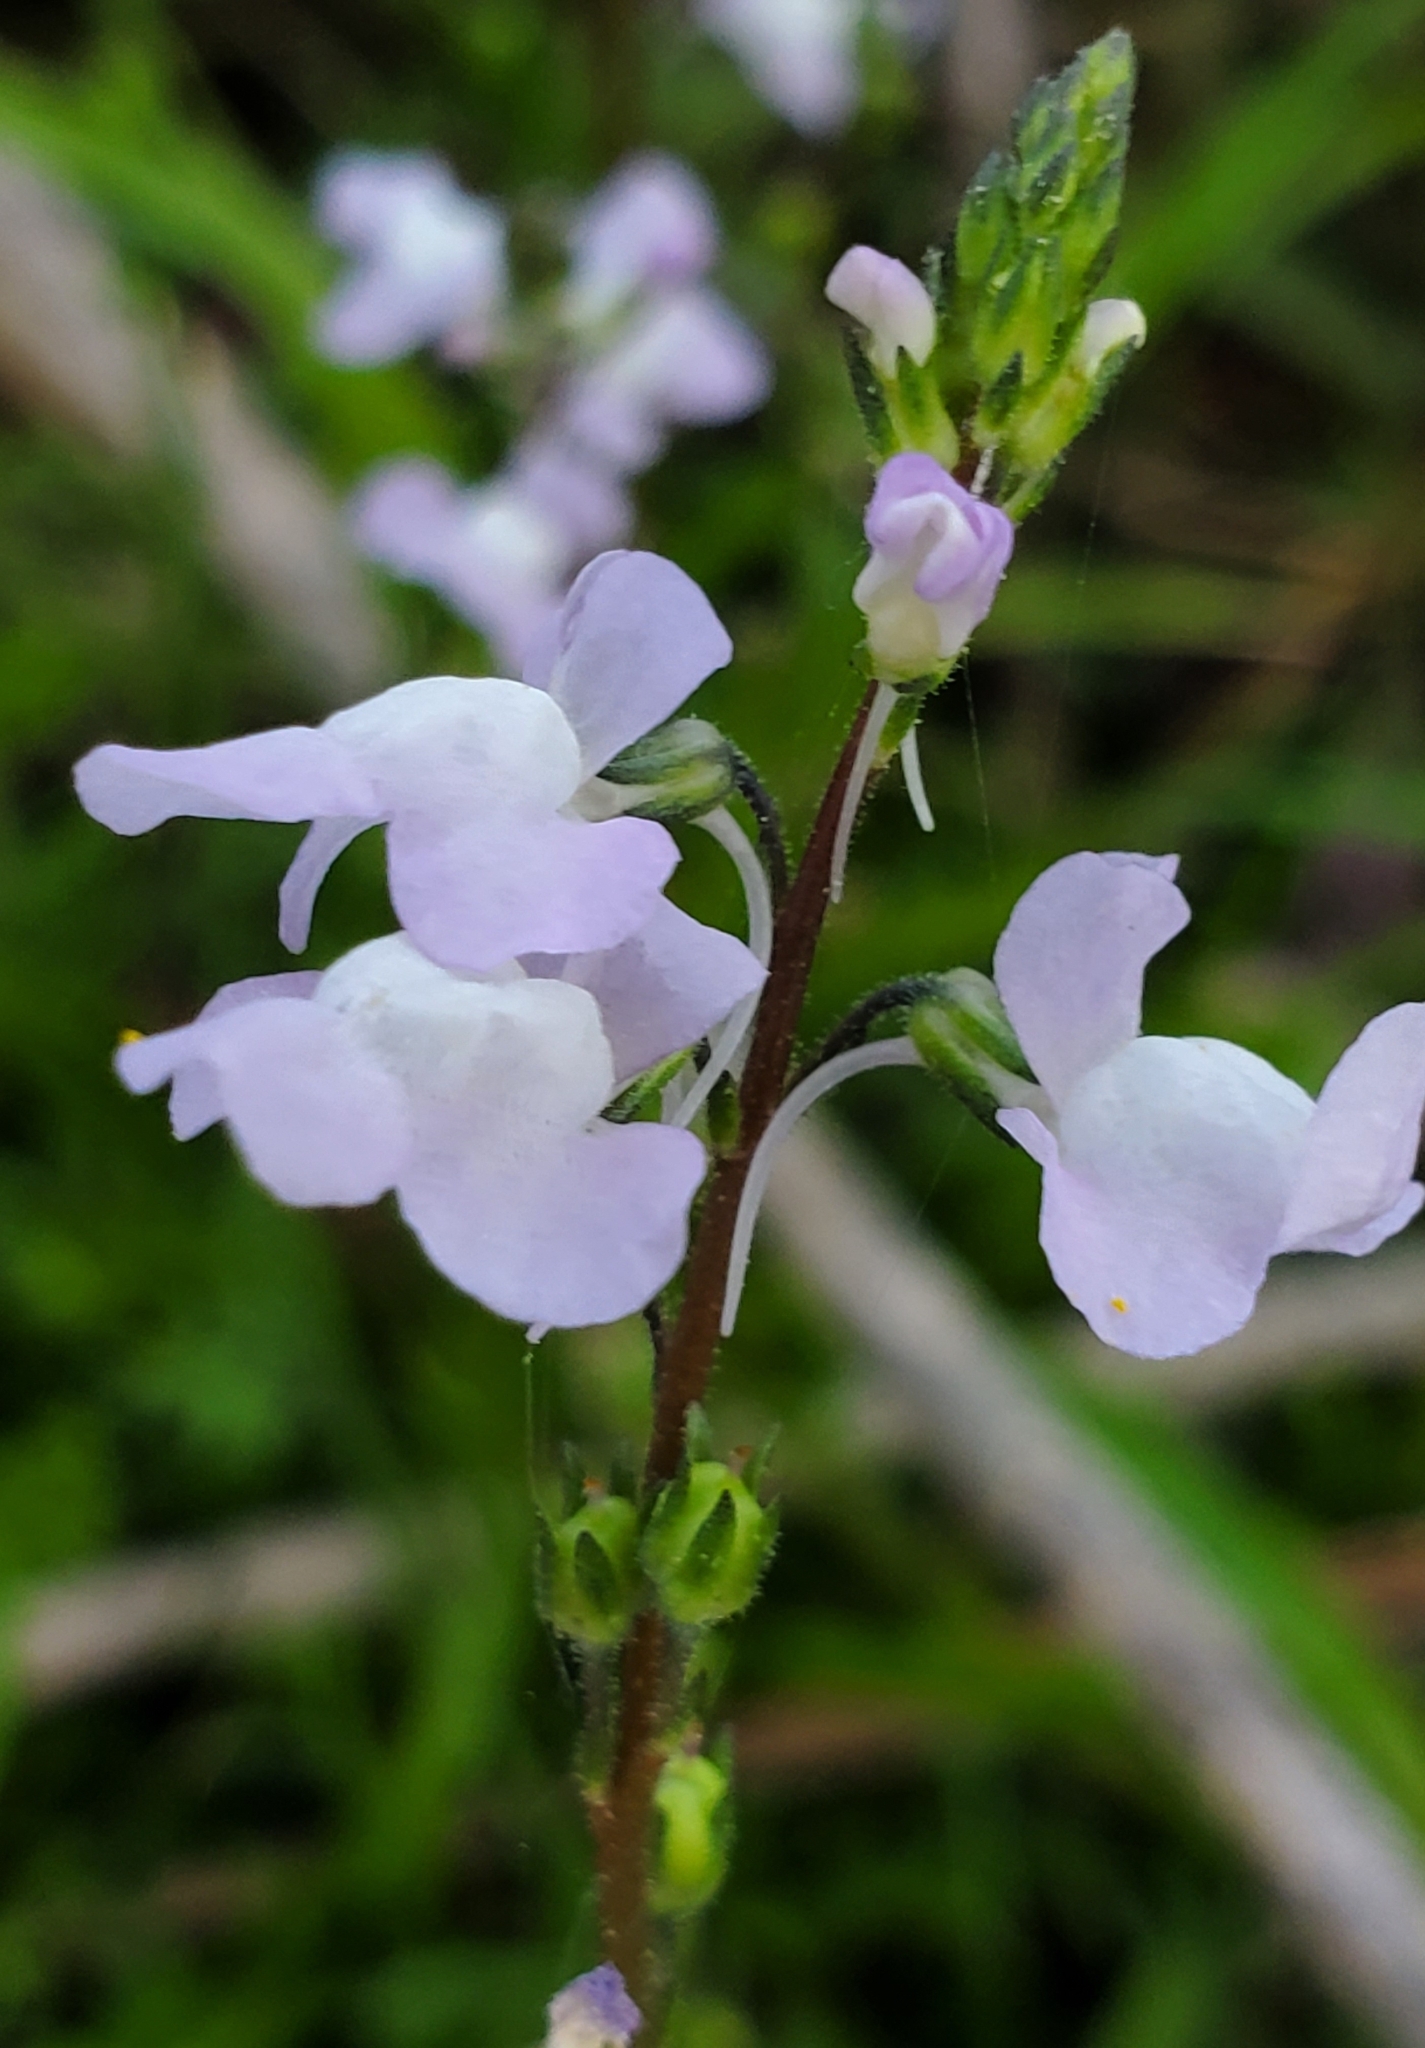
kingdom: Plantae
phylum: Tracheophyta
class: Magnoliopsida
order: Lamiales
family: Plantaginaceae
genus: Nuttallanthus
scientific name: Nuttallanthus canadensis
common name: Blue toadflax
